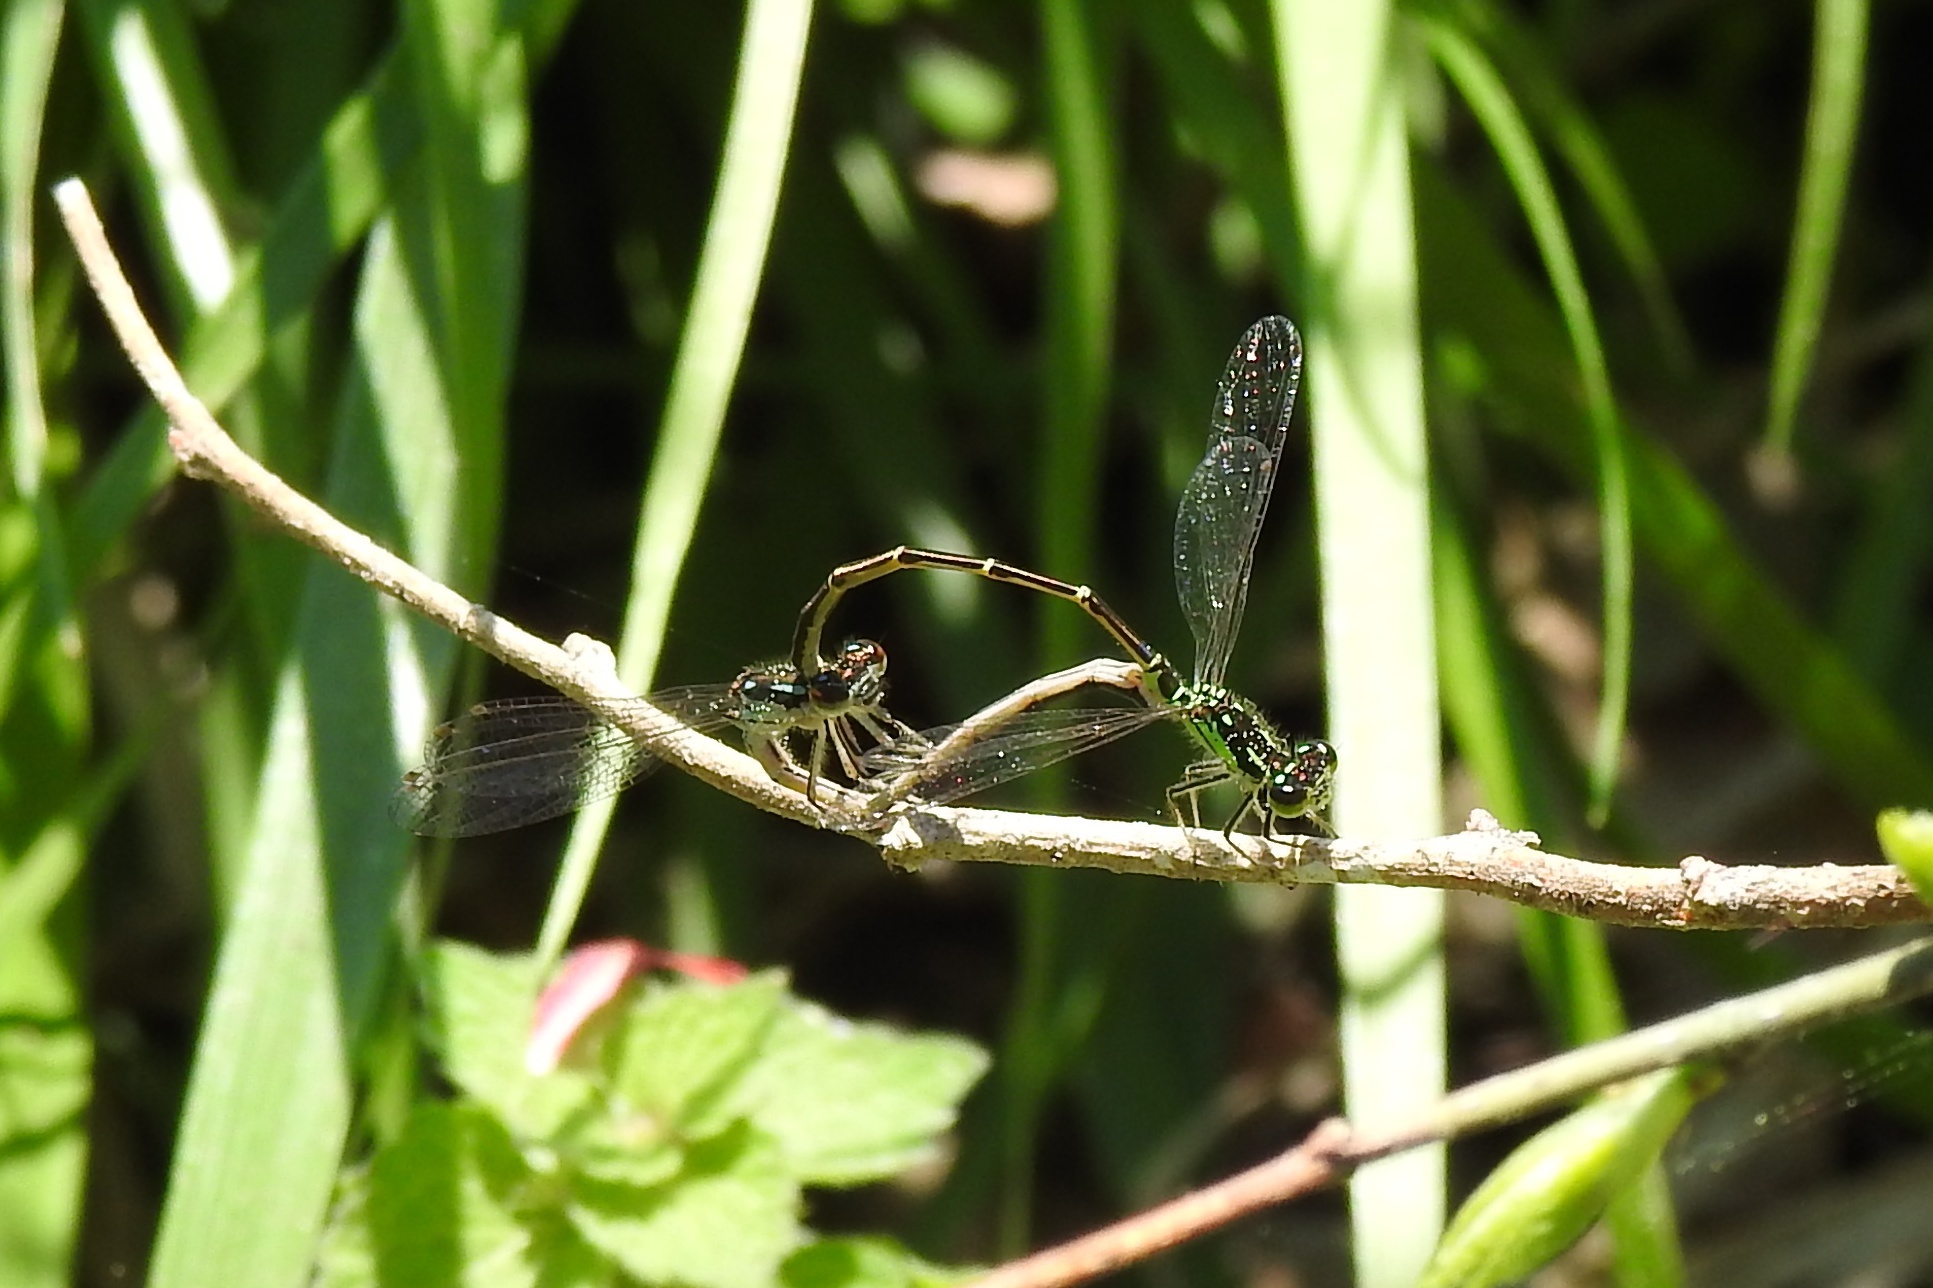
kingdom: Animalia
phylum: Arthropoda
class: Insecta
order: Odonata
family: Coenagrionidae
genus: Ischnura
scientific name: Ischnura posita
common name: Fragile forktail
